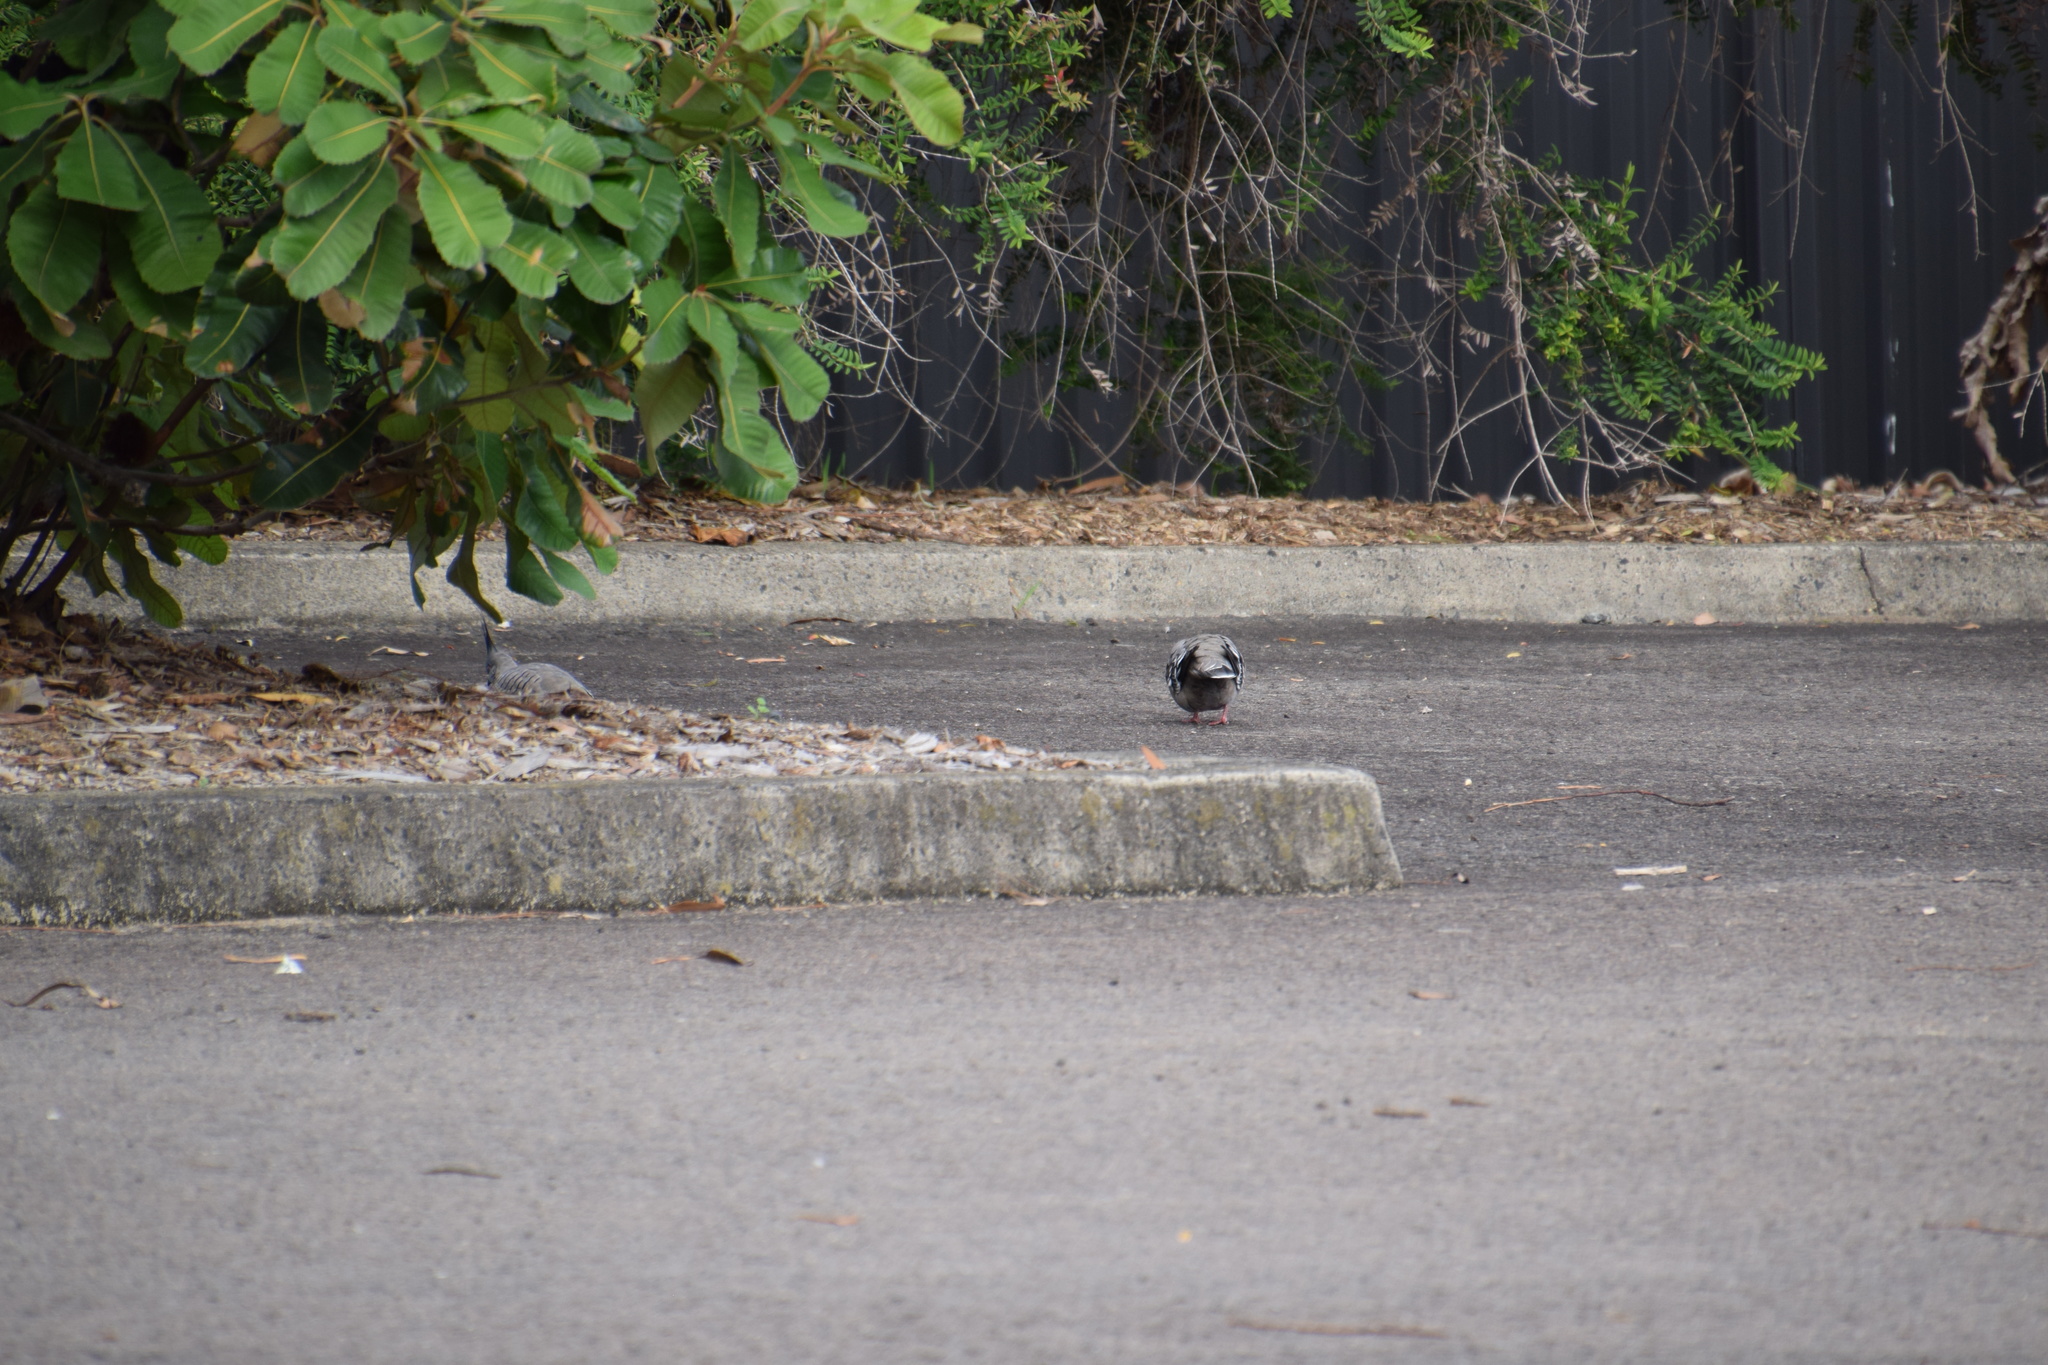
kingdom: Animalia
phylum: Chordata
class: Aves
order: Columbiformes
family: Columbidae
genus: Ocyphaps
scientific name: Ocyphaps lophotes
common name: Crested pigeon
